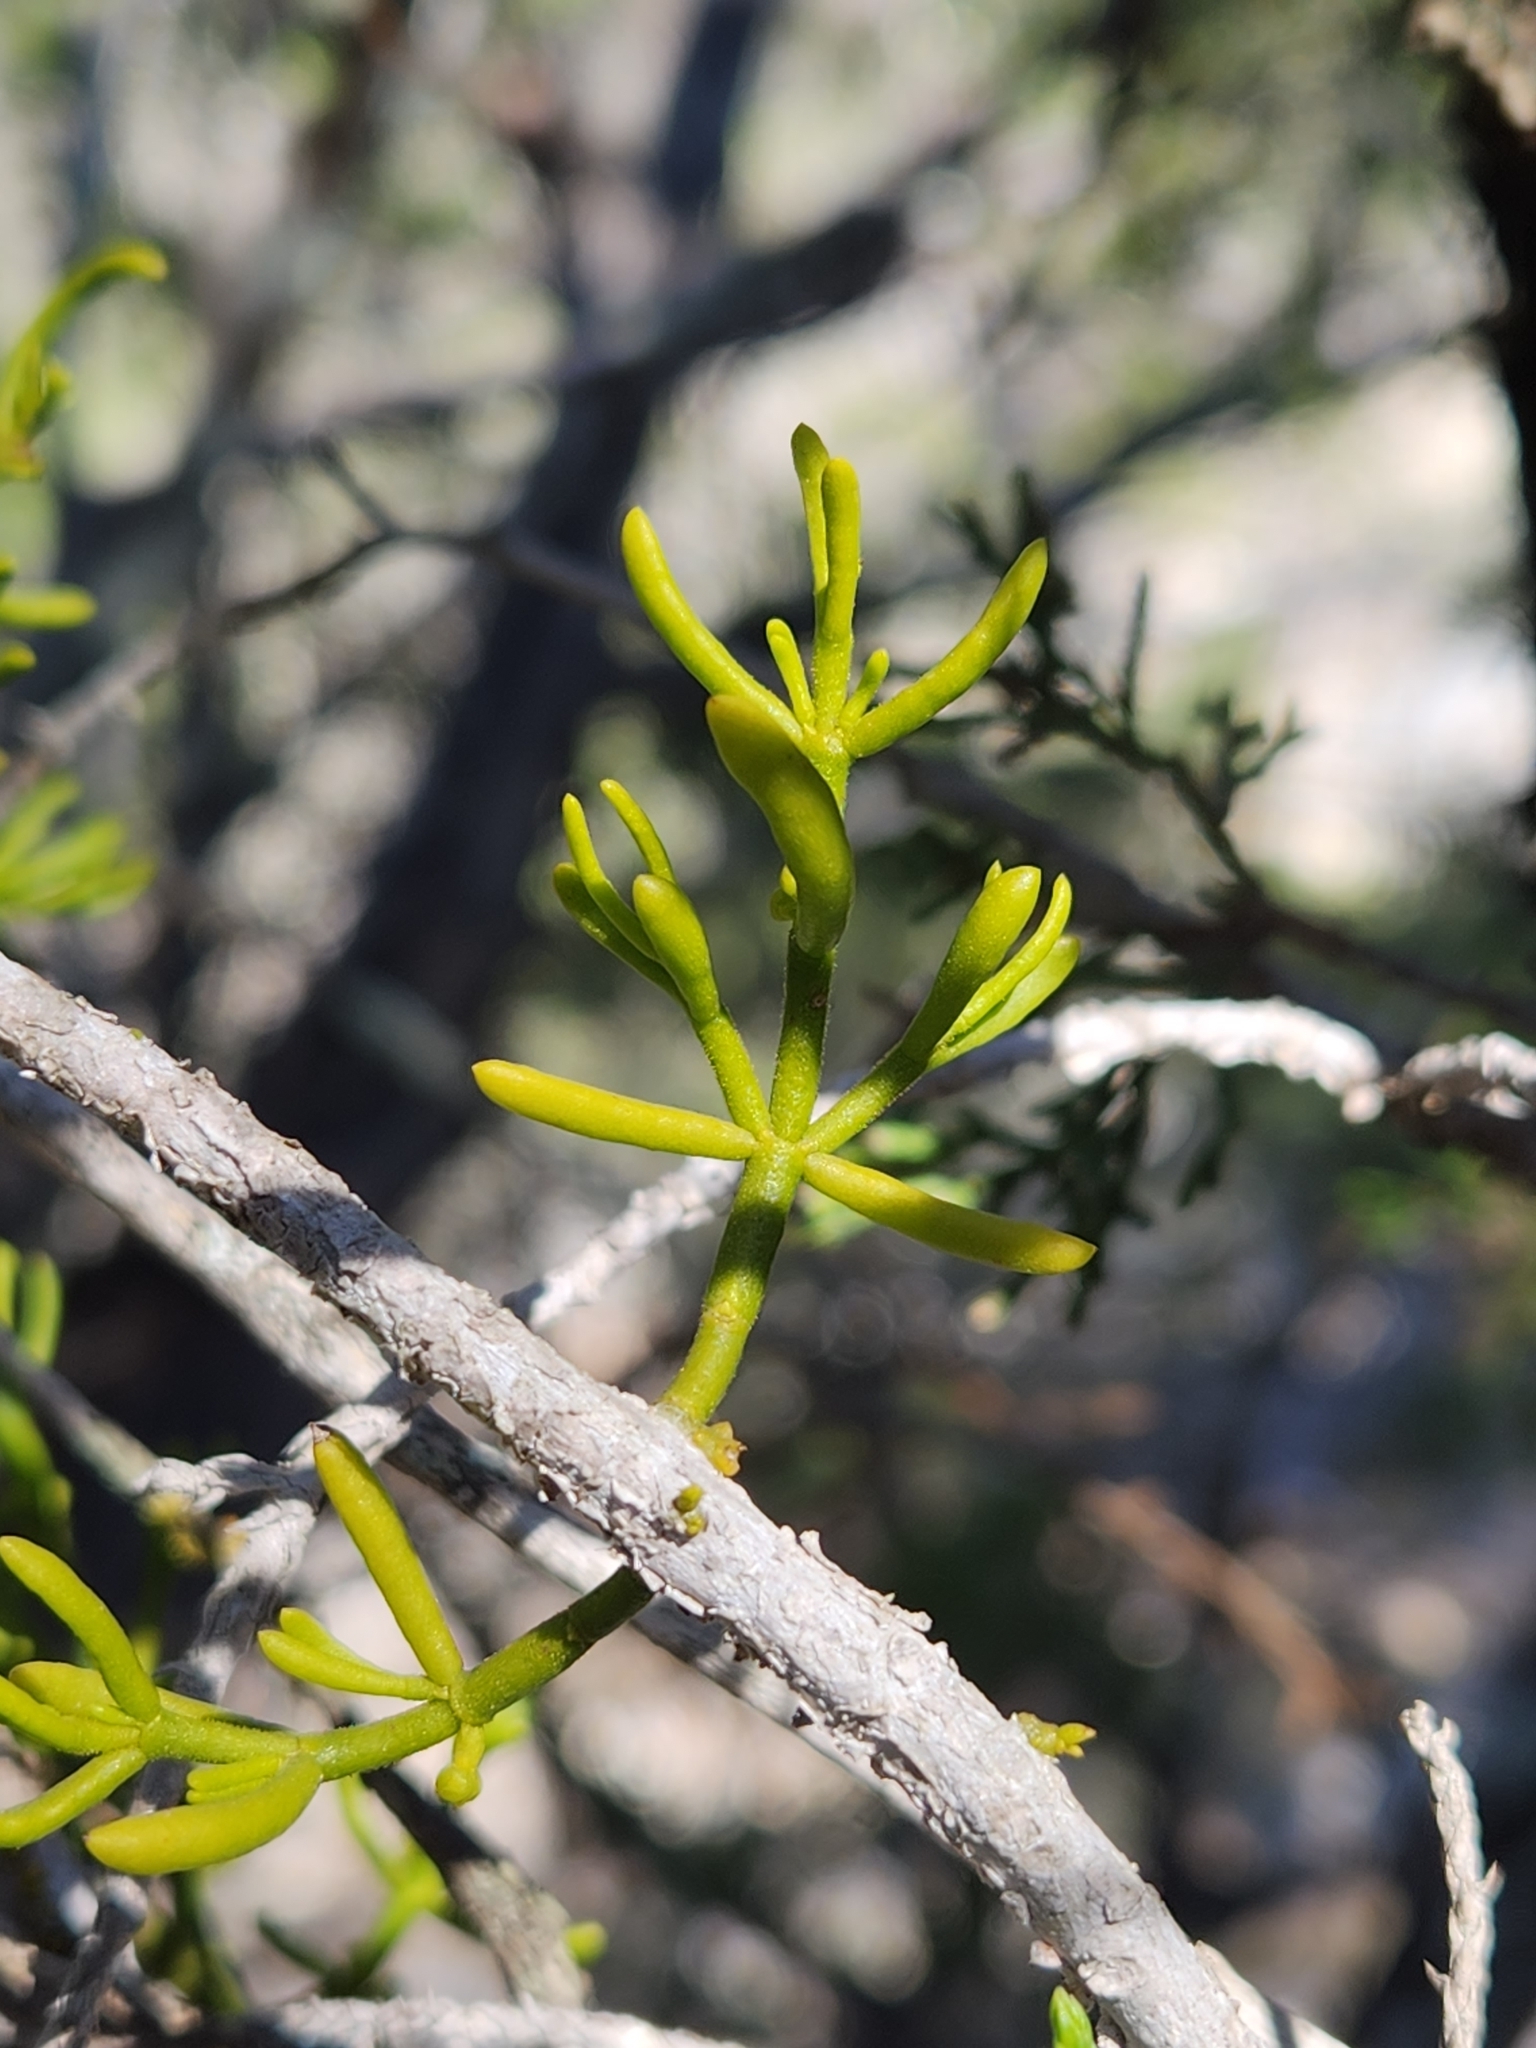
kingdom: Plantae
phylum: Tracheophyta
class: Magnoliopsida
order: Santalales
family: Viscaceae
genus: Phoradendron
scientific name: Phoradendron hawksworthii
